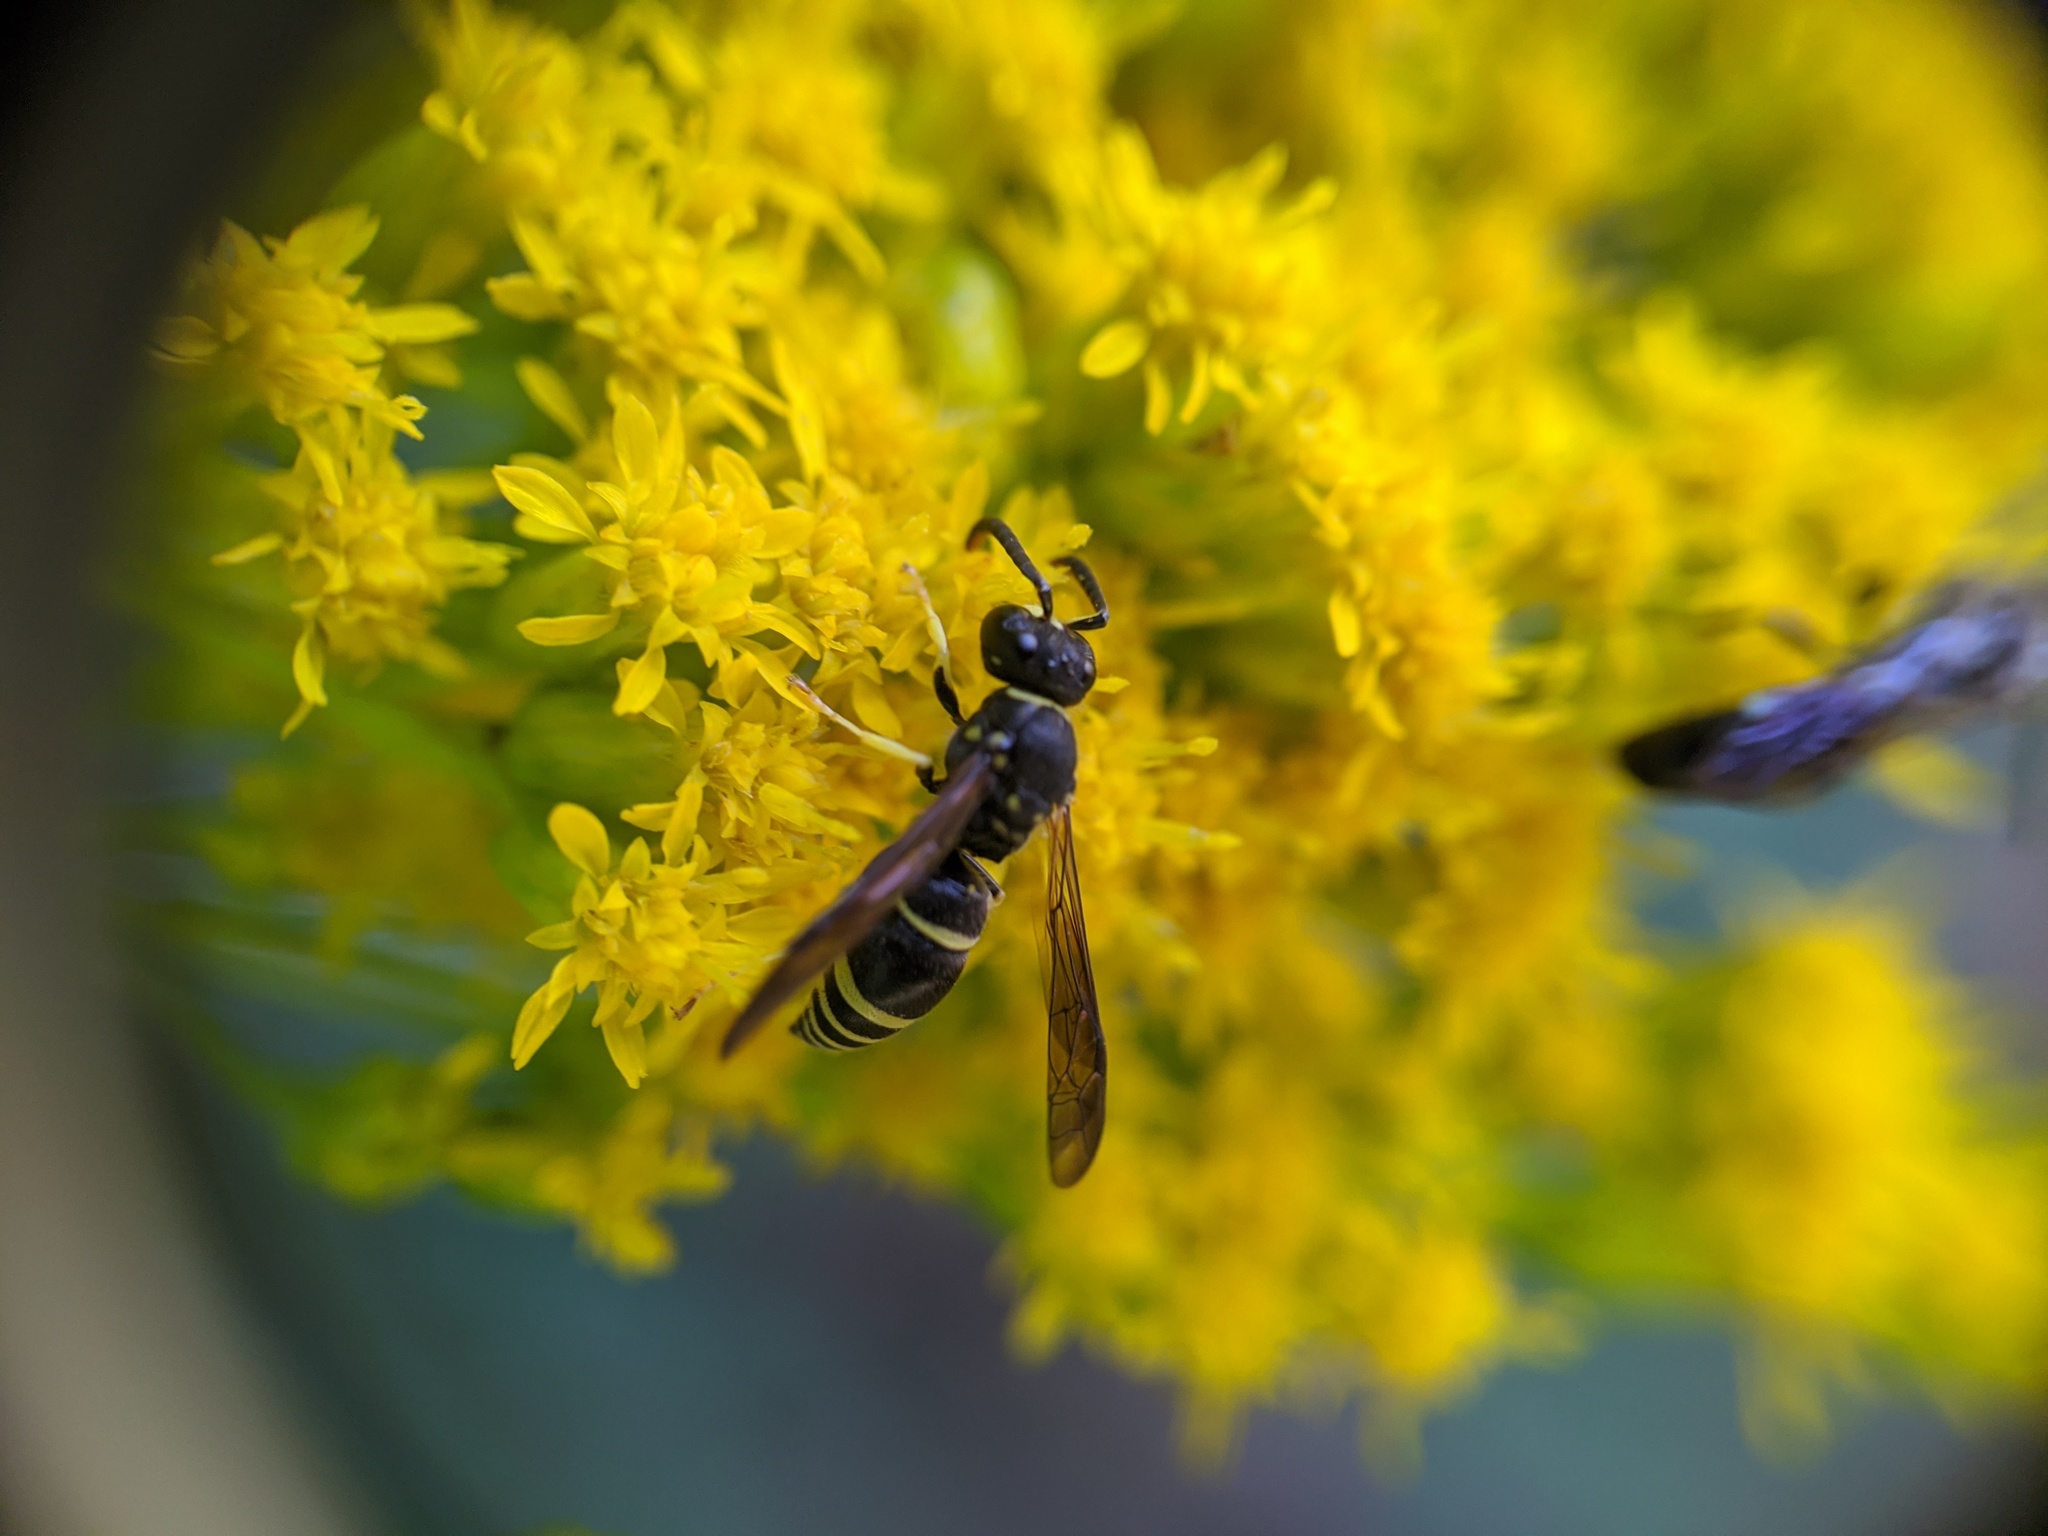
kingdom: Animalia
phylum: Arthropoda
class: Insecta
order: Hymenoptera
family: Vespidae
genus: Ancistrocerus
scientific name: Ancistrocerus adiabatus
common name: Bramble mason wasp
